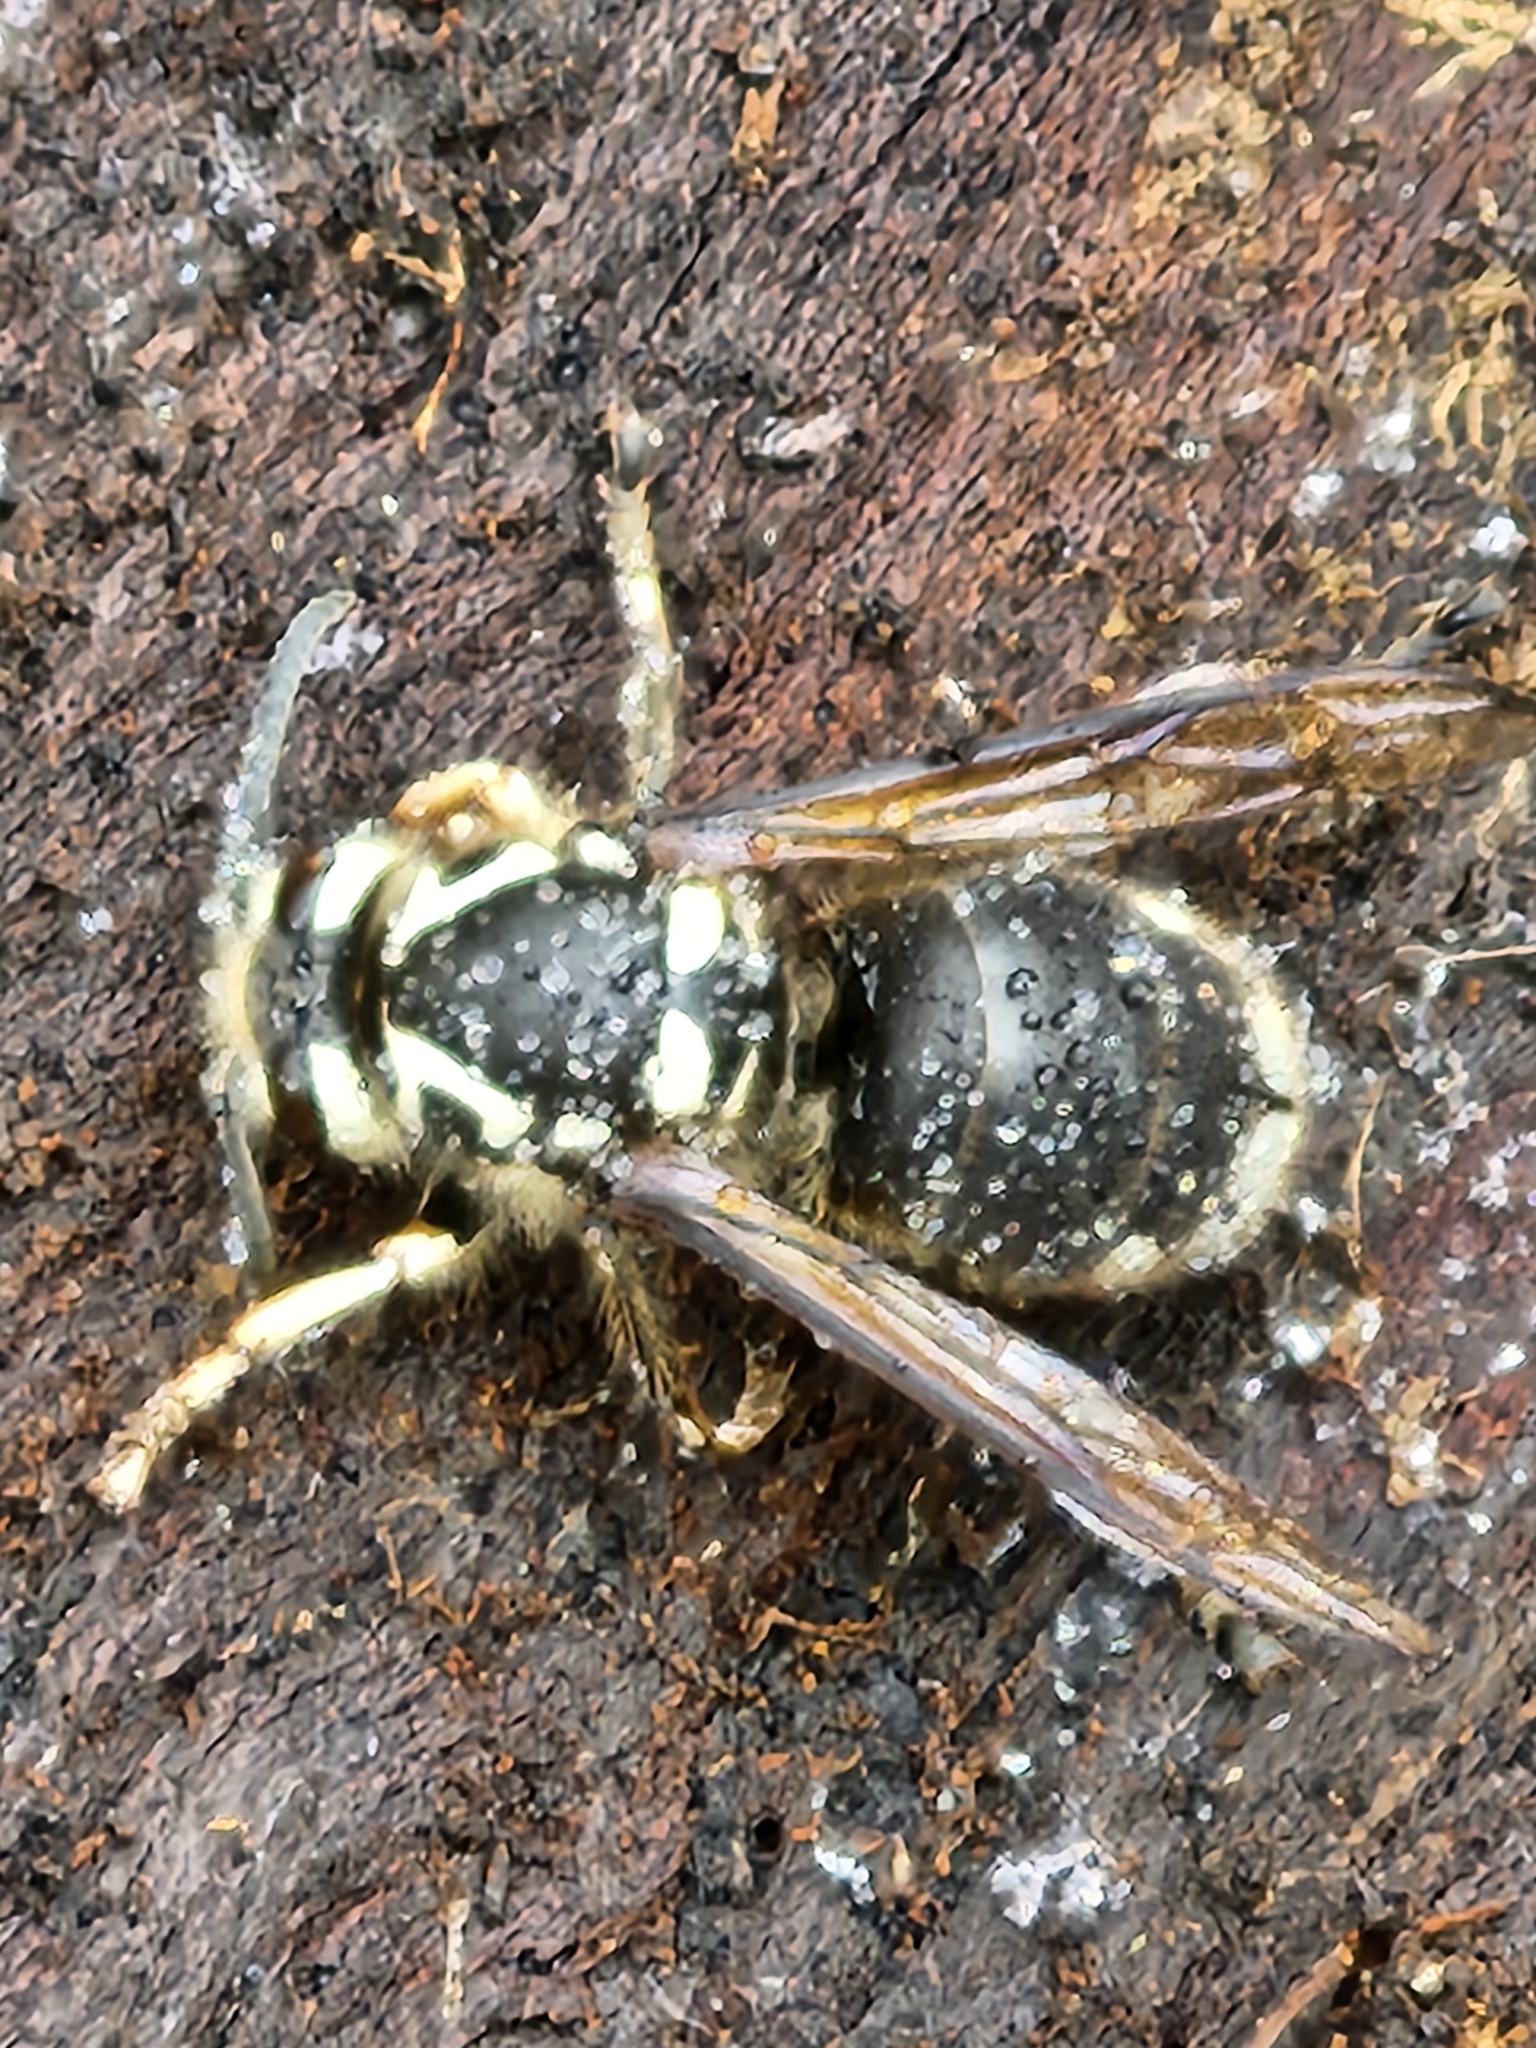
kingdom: Animalia
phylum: Arthropoda
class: Insecta
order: Hymenoptera
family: Vespidae
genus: Dolichovespula
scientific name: Dolichovespula maculata
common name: Bald-faced hornet
